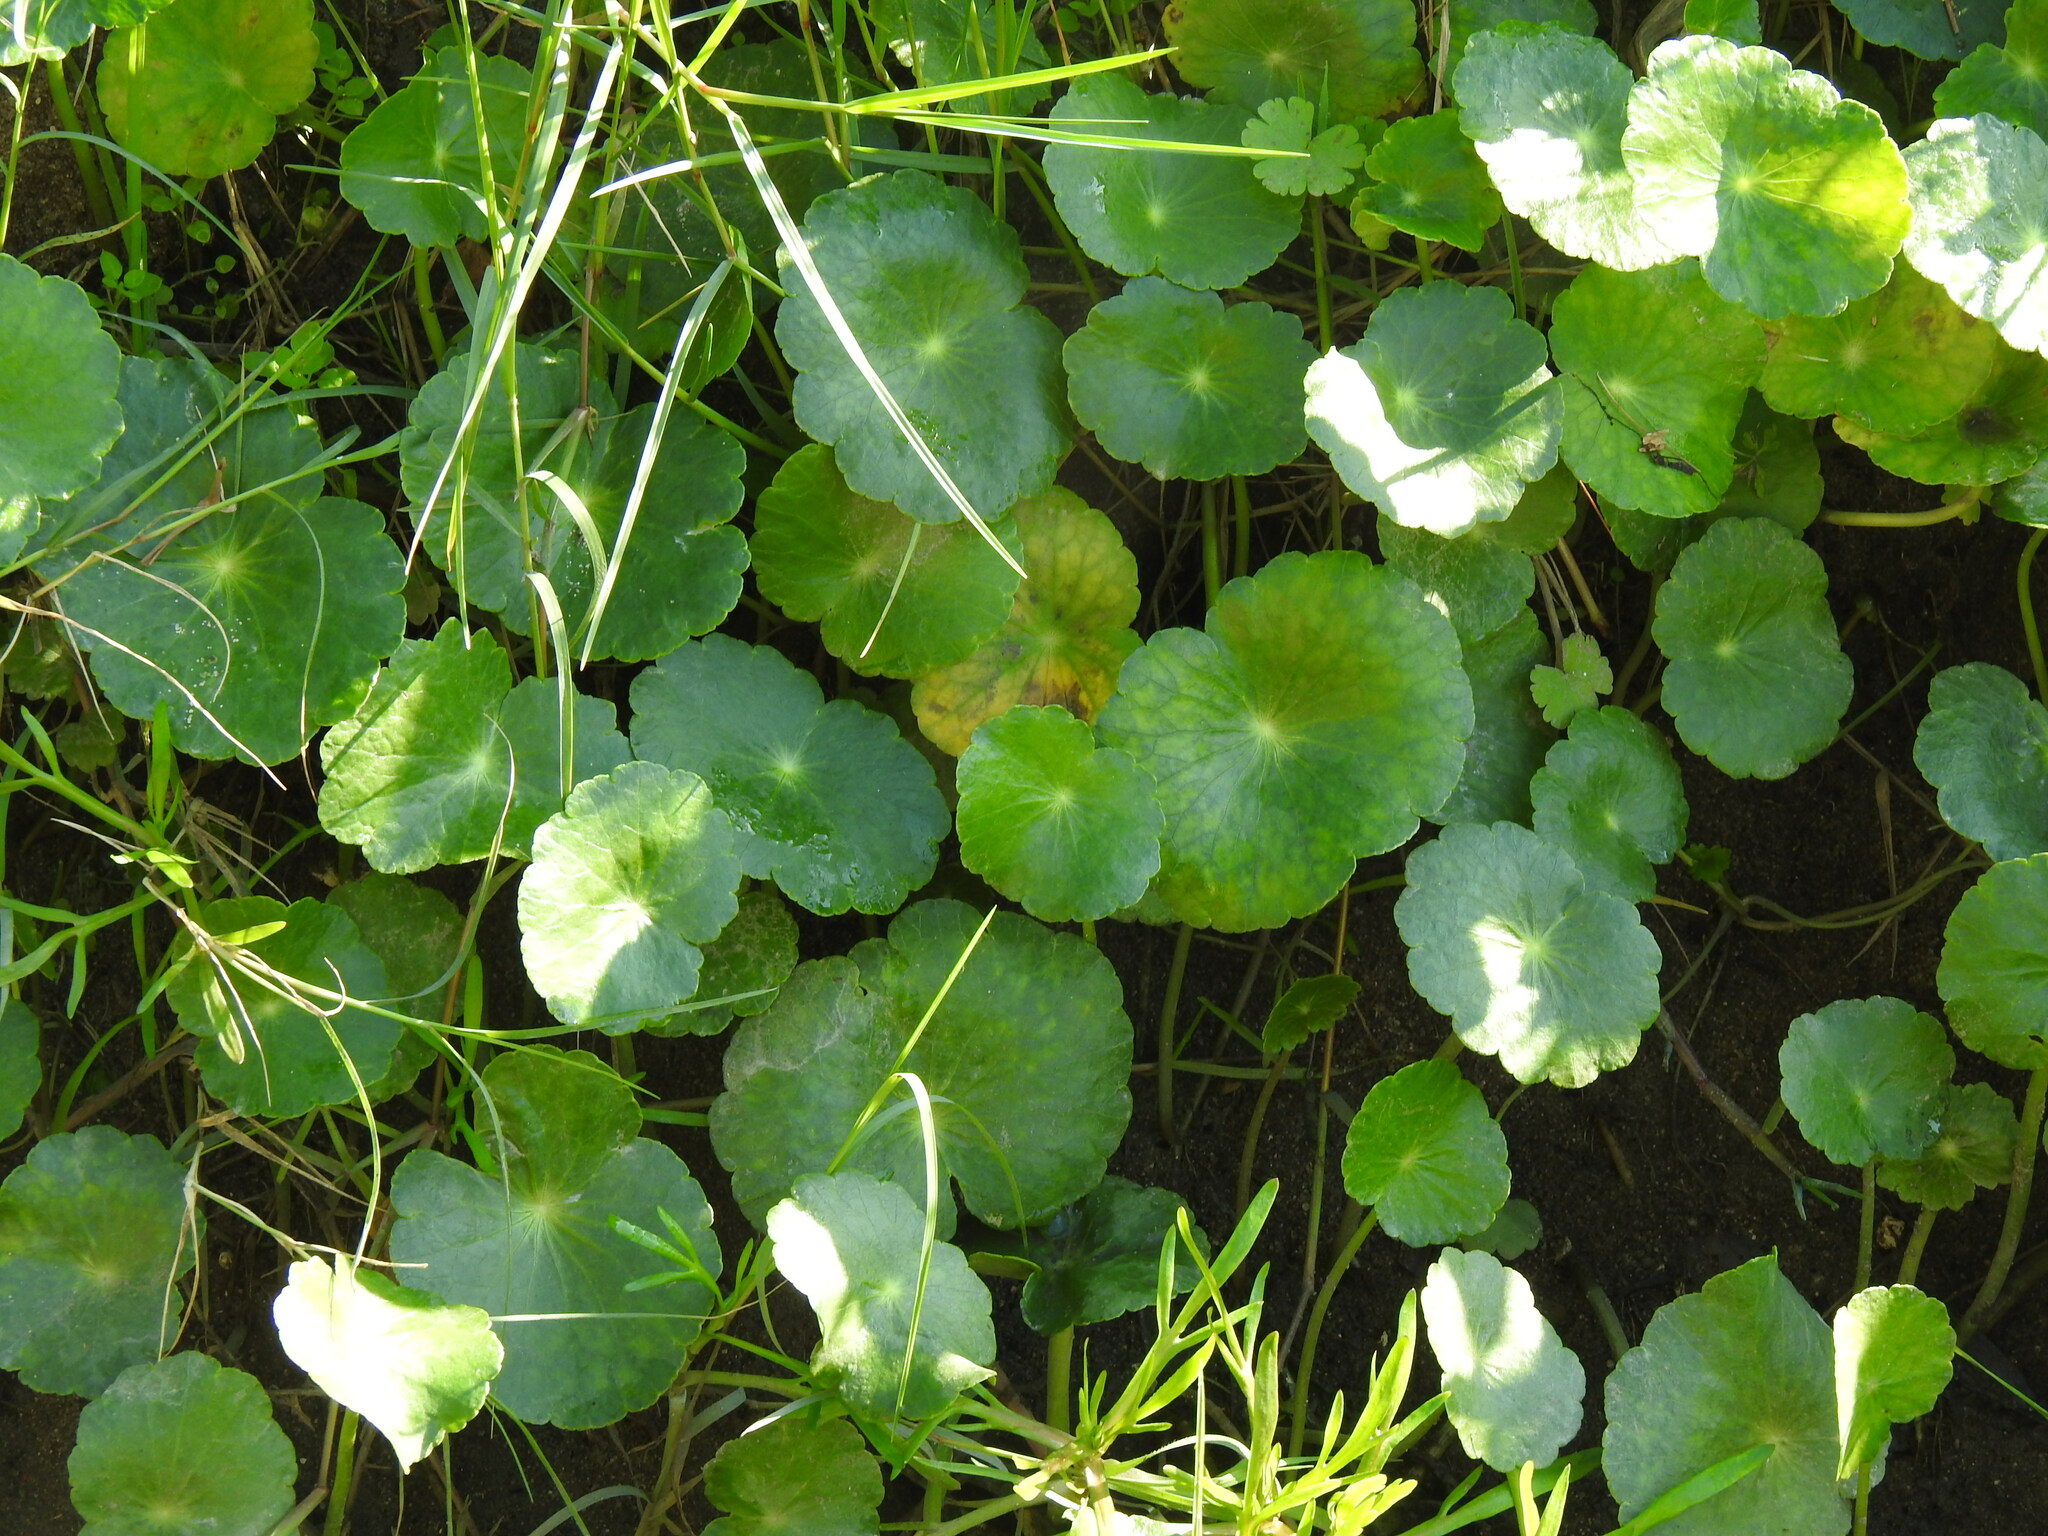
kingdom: Plantae
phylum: Tracheophyta
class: Magnoliopsida
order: Apiales
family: Araliaceae
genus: Hydrocotyle
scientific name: Hydrocotyle bonariensis
